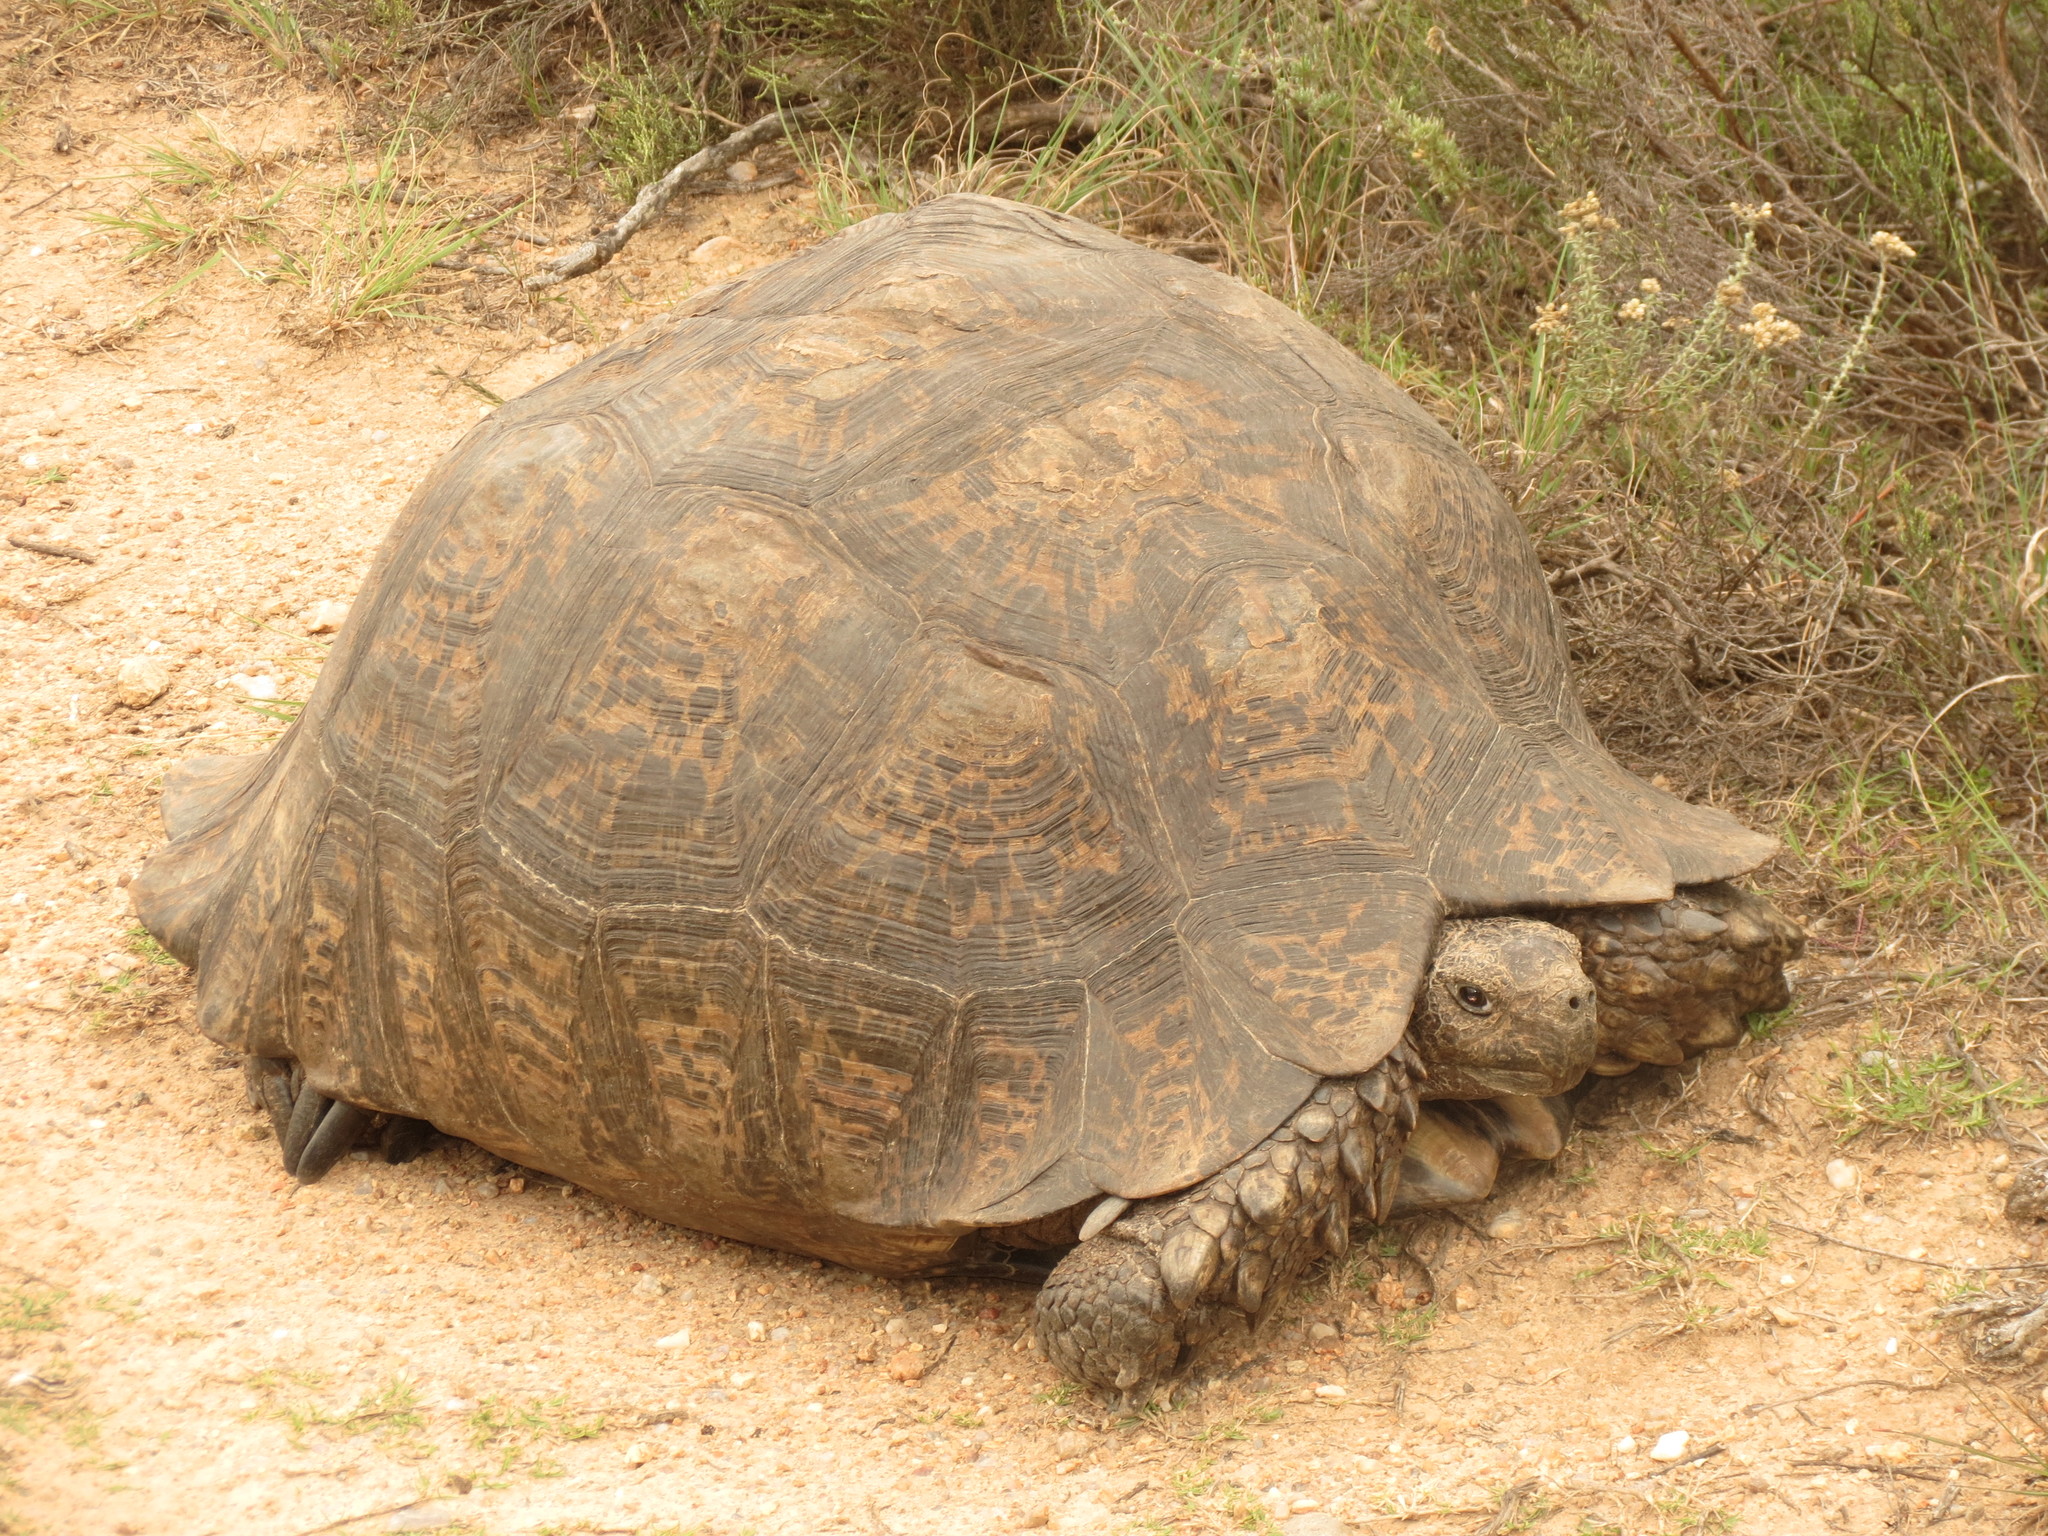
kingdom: Animalia
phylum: Chordata
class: Testudines
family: Testudinidae
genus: Stigmochelys
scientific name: Stigmochelys pardalis
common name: Leopard tortoise
